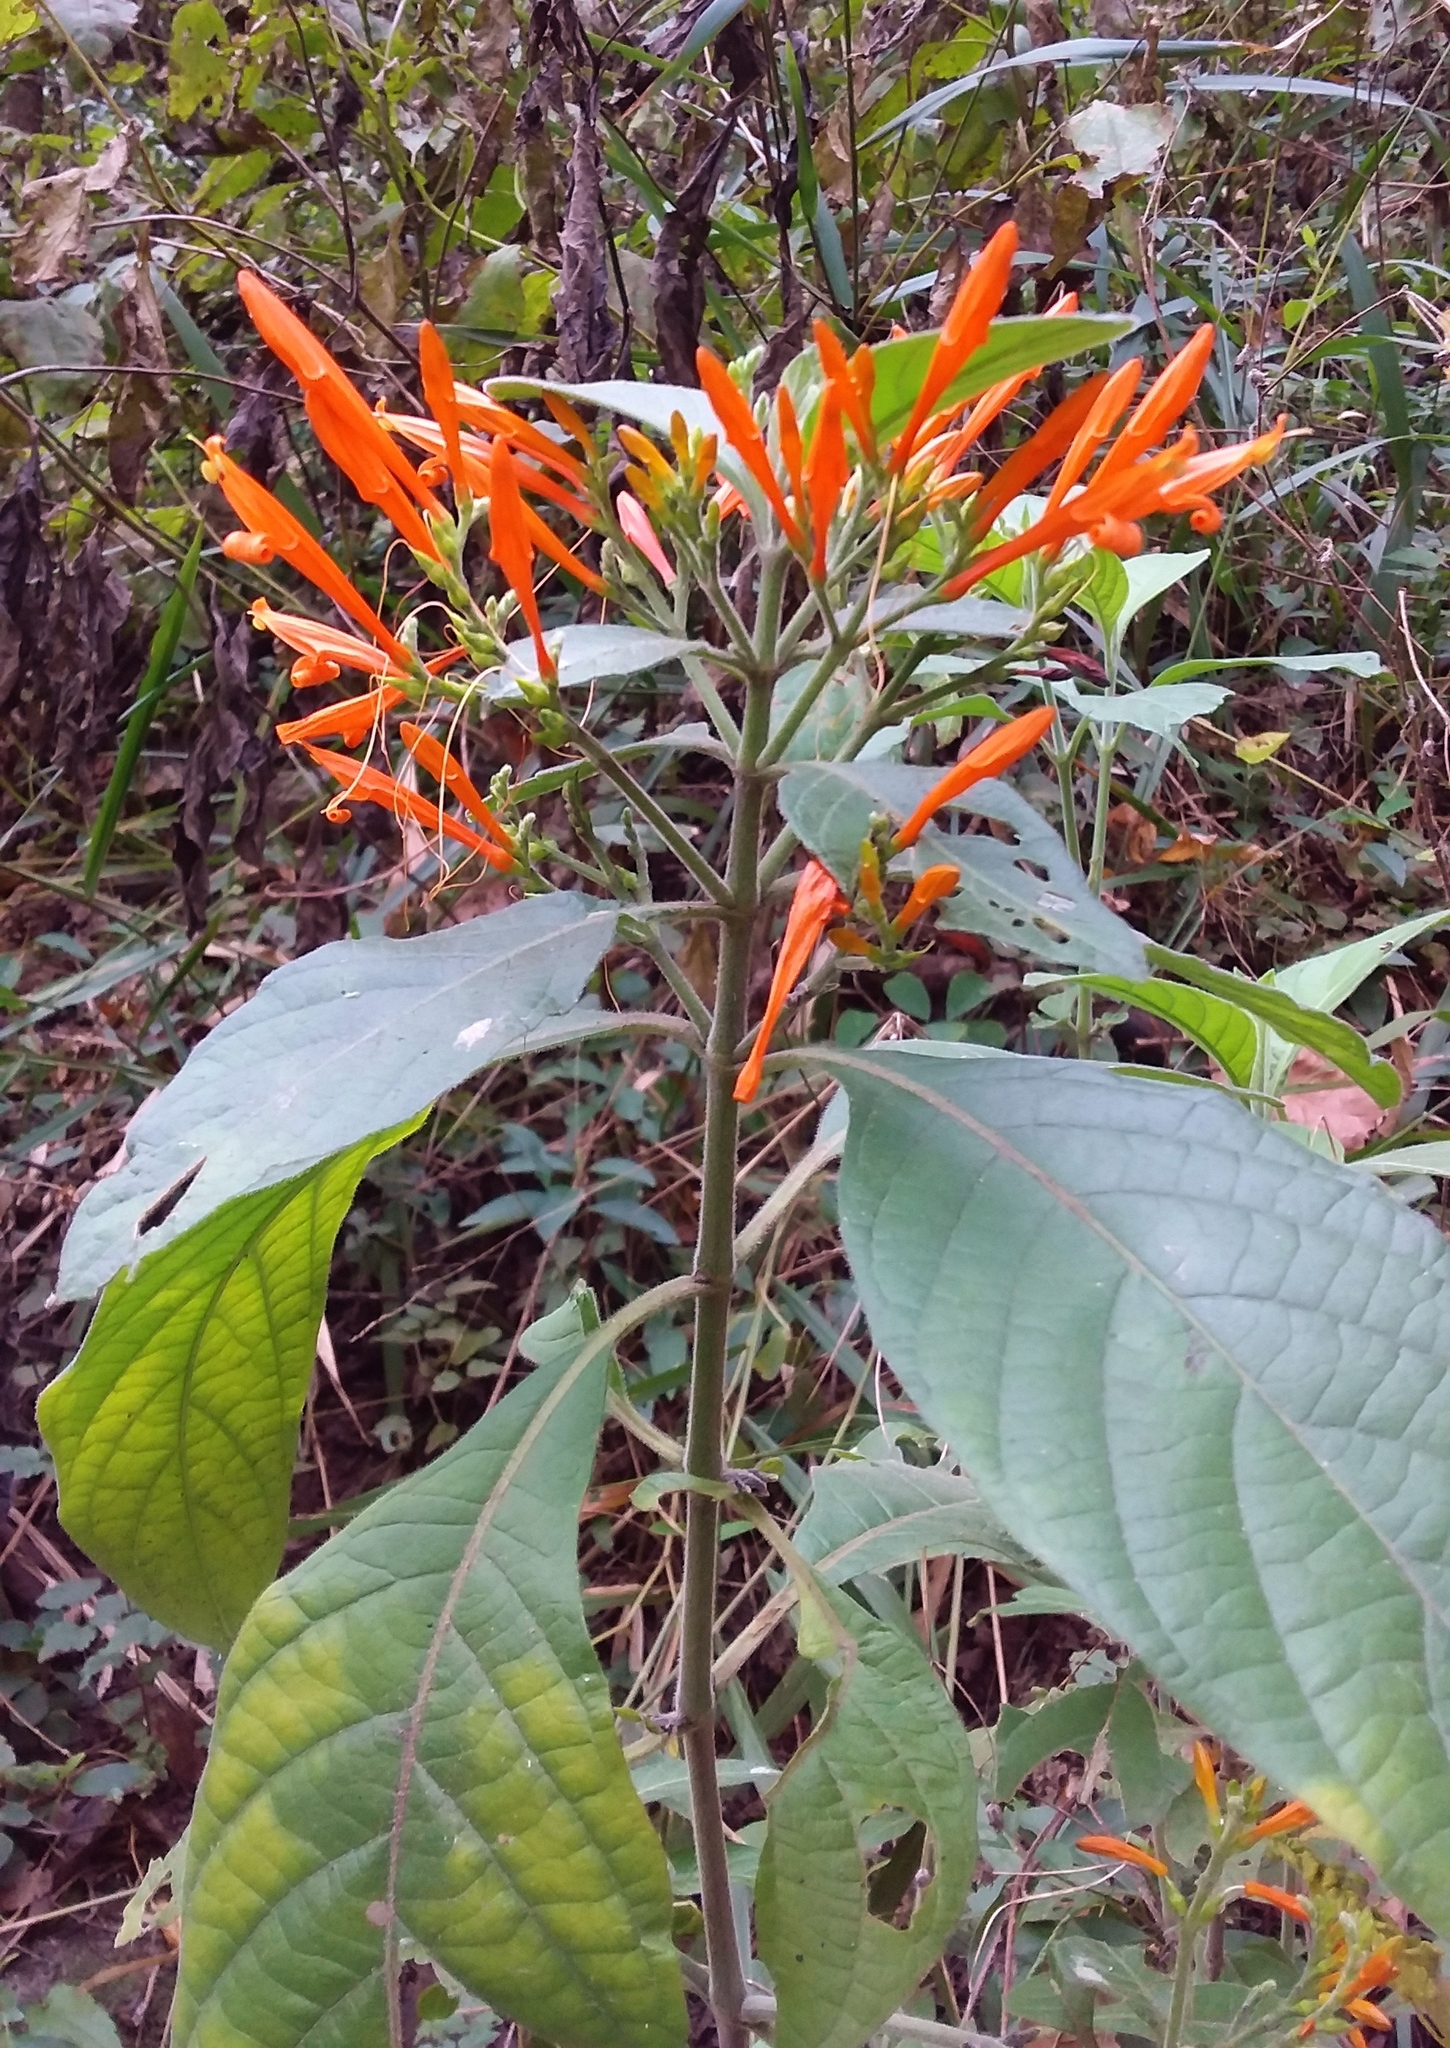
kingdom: Plantae
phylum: Tracheophyta
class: Magnoliopsida
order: Lamiales
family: Acanthaceae
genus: Justicia
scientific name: Justicia spicigera
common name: Mohintli
